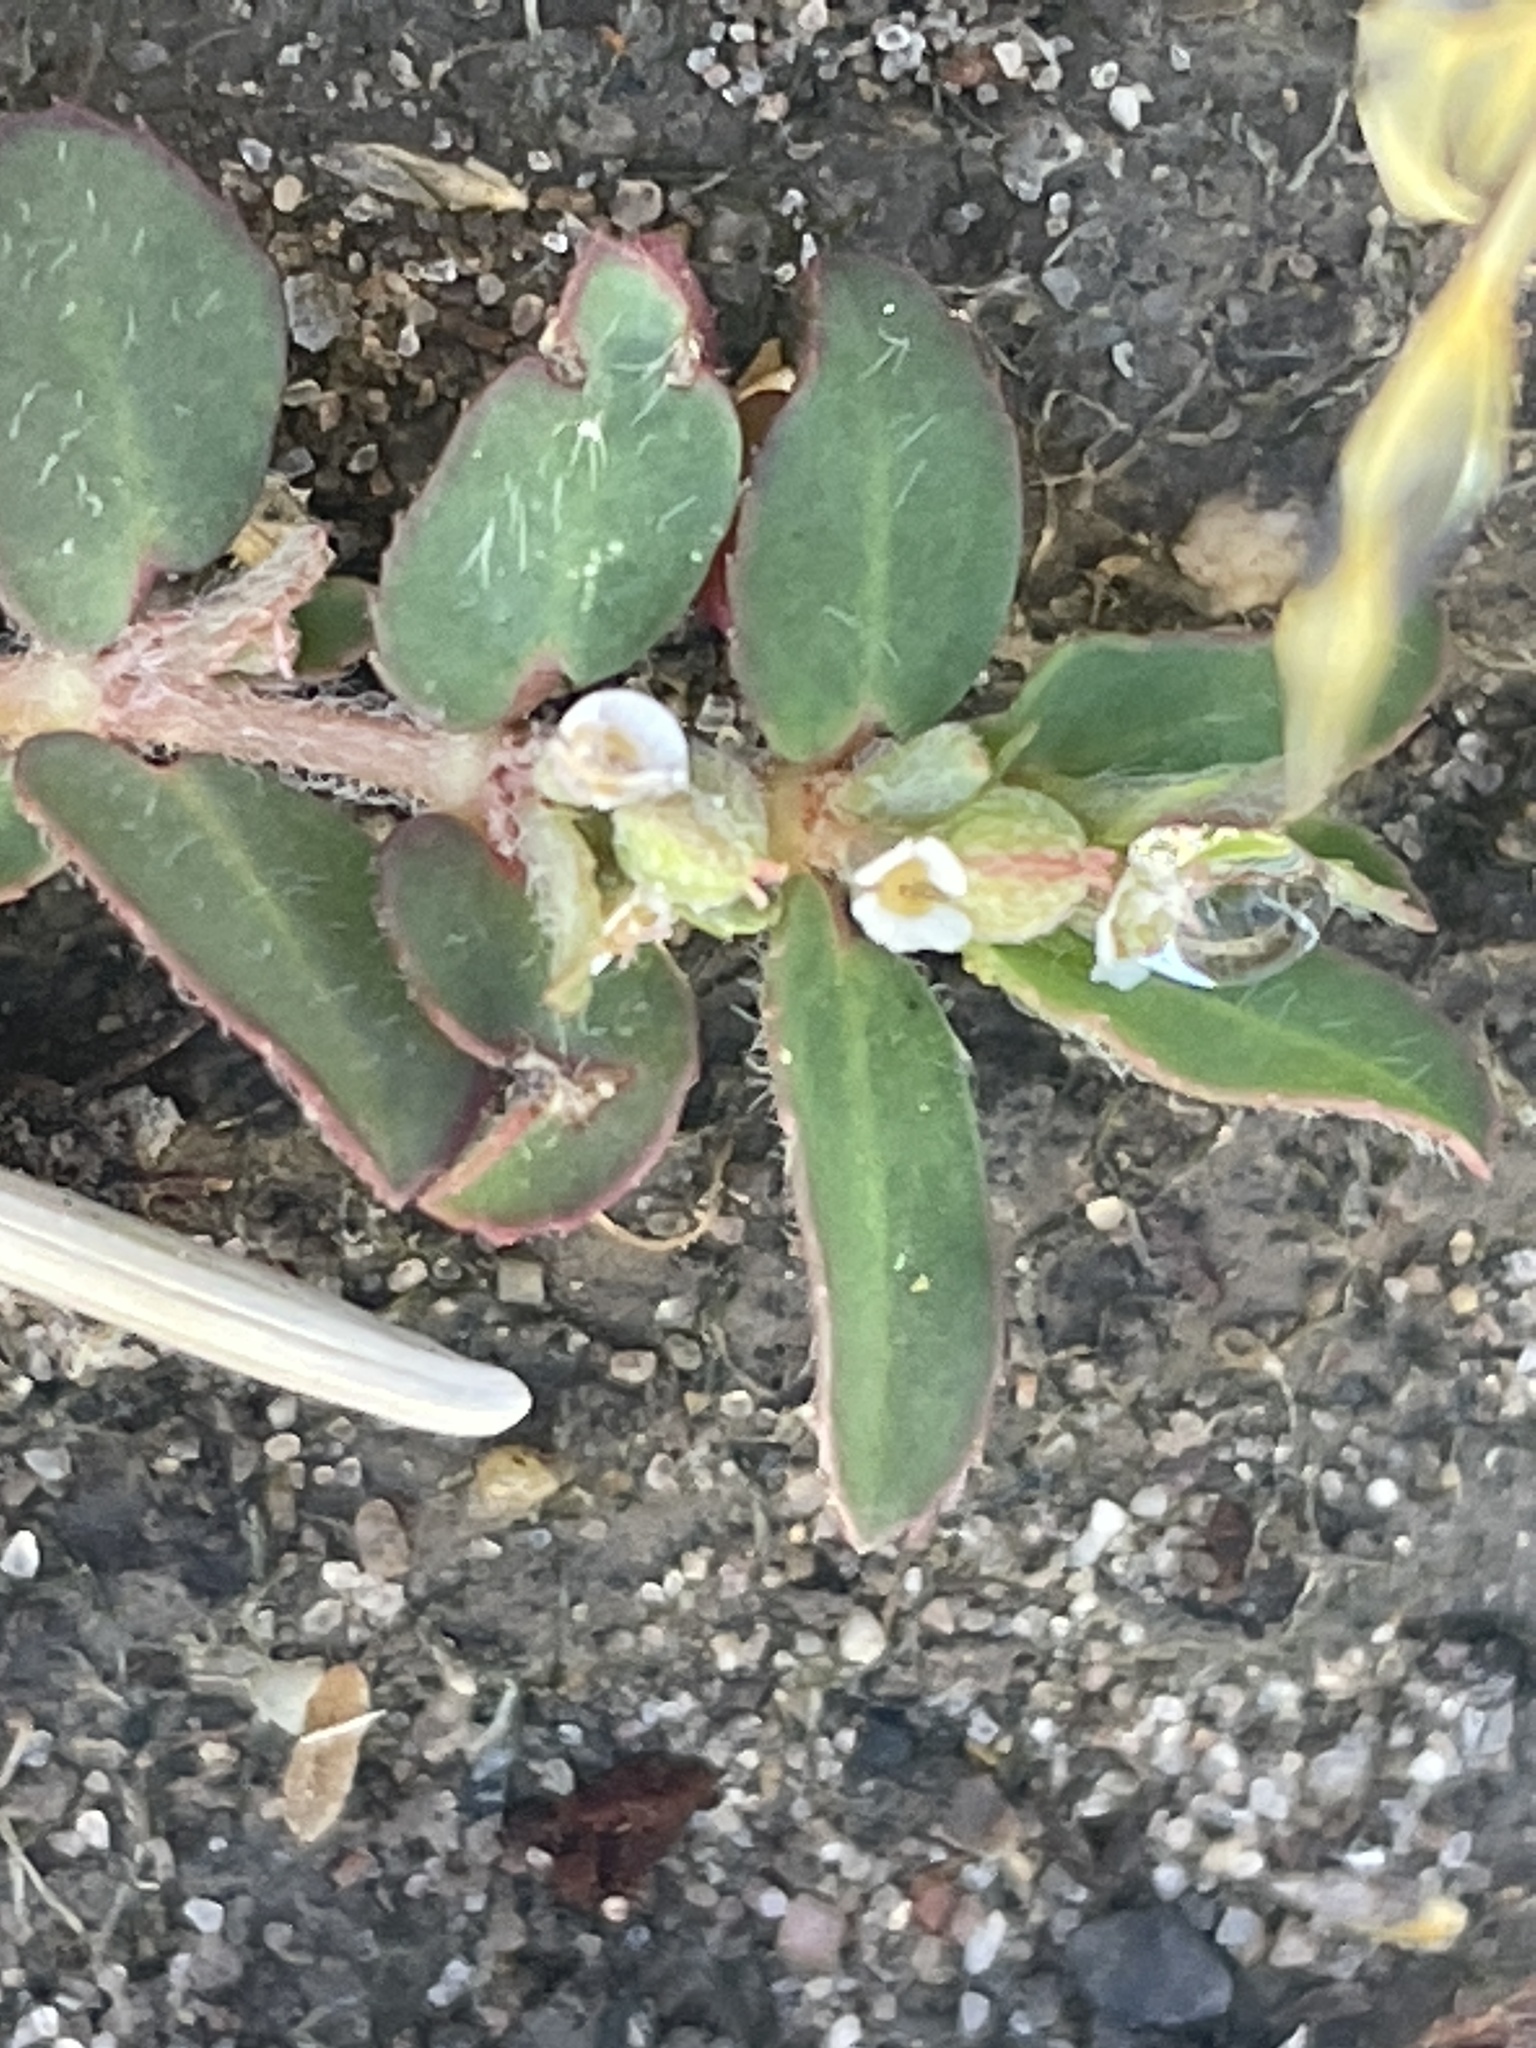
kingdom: Plantae
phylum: Tracheophyta
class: Magnoliopsida
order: Malpighiales
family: Euphorbiaceae
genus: Euphorbia
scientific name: Euphorbia maculata
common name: Spotted spurge
